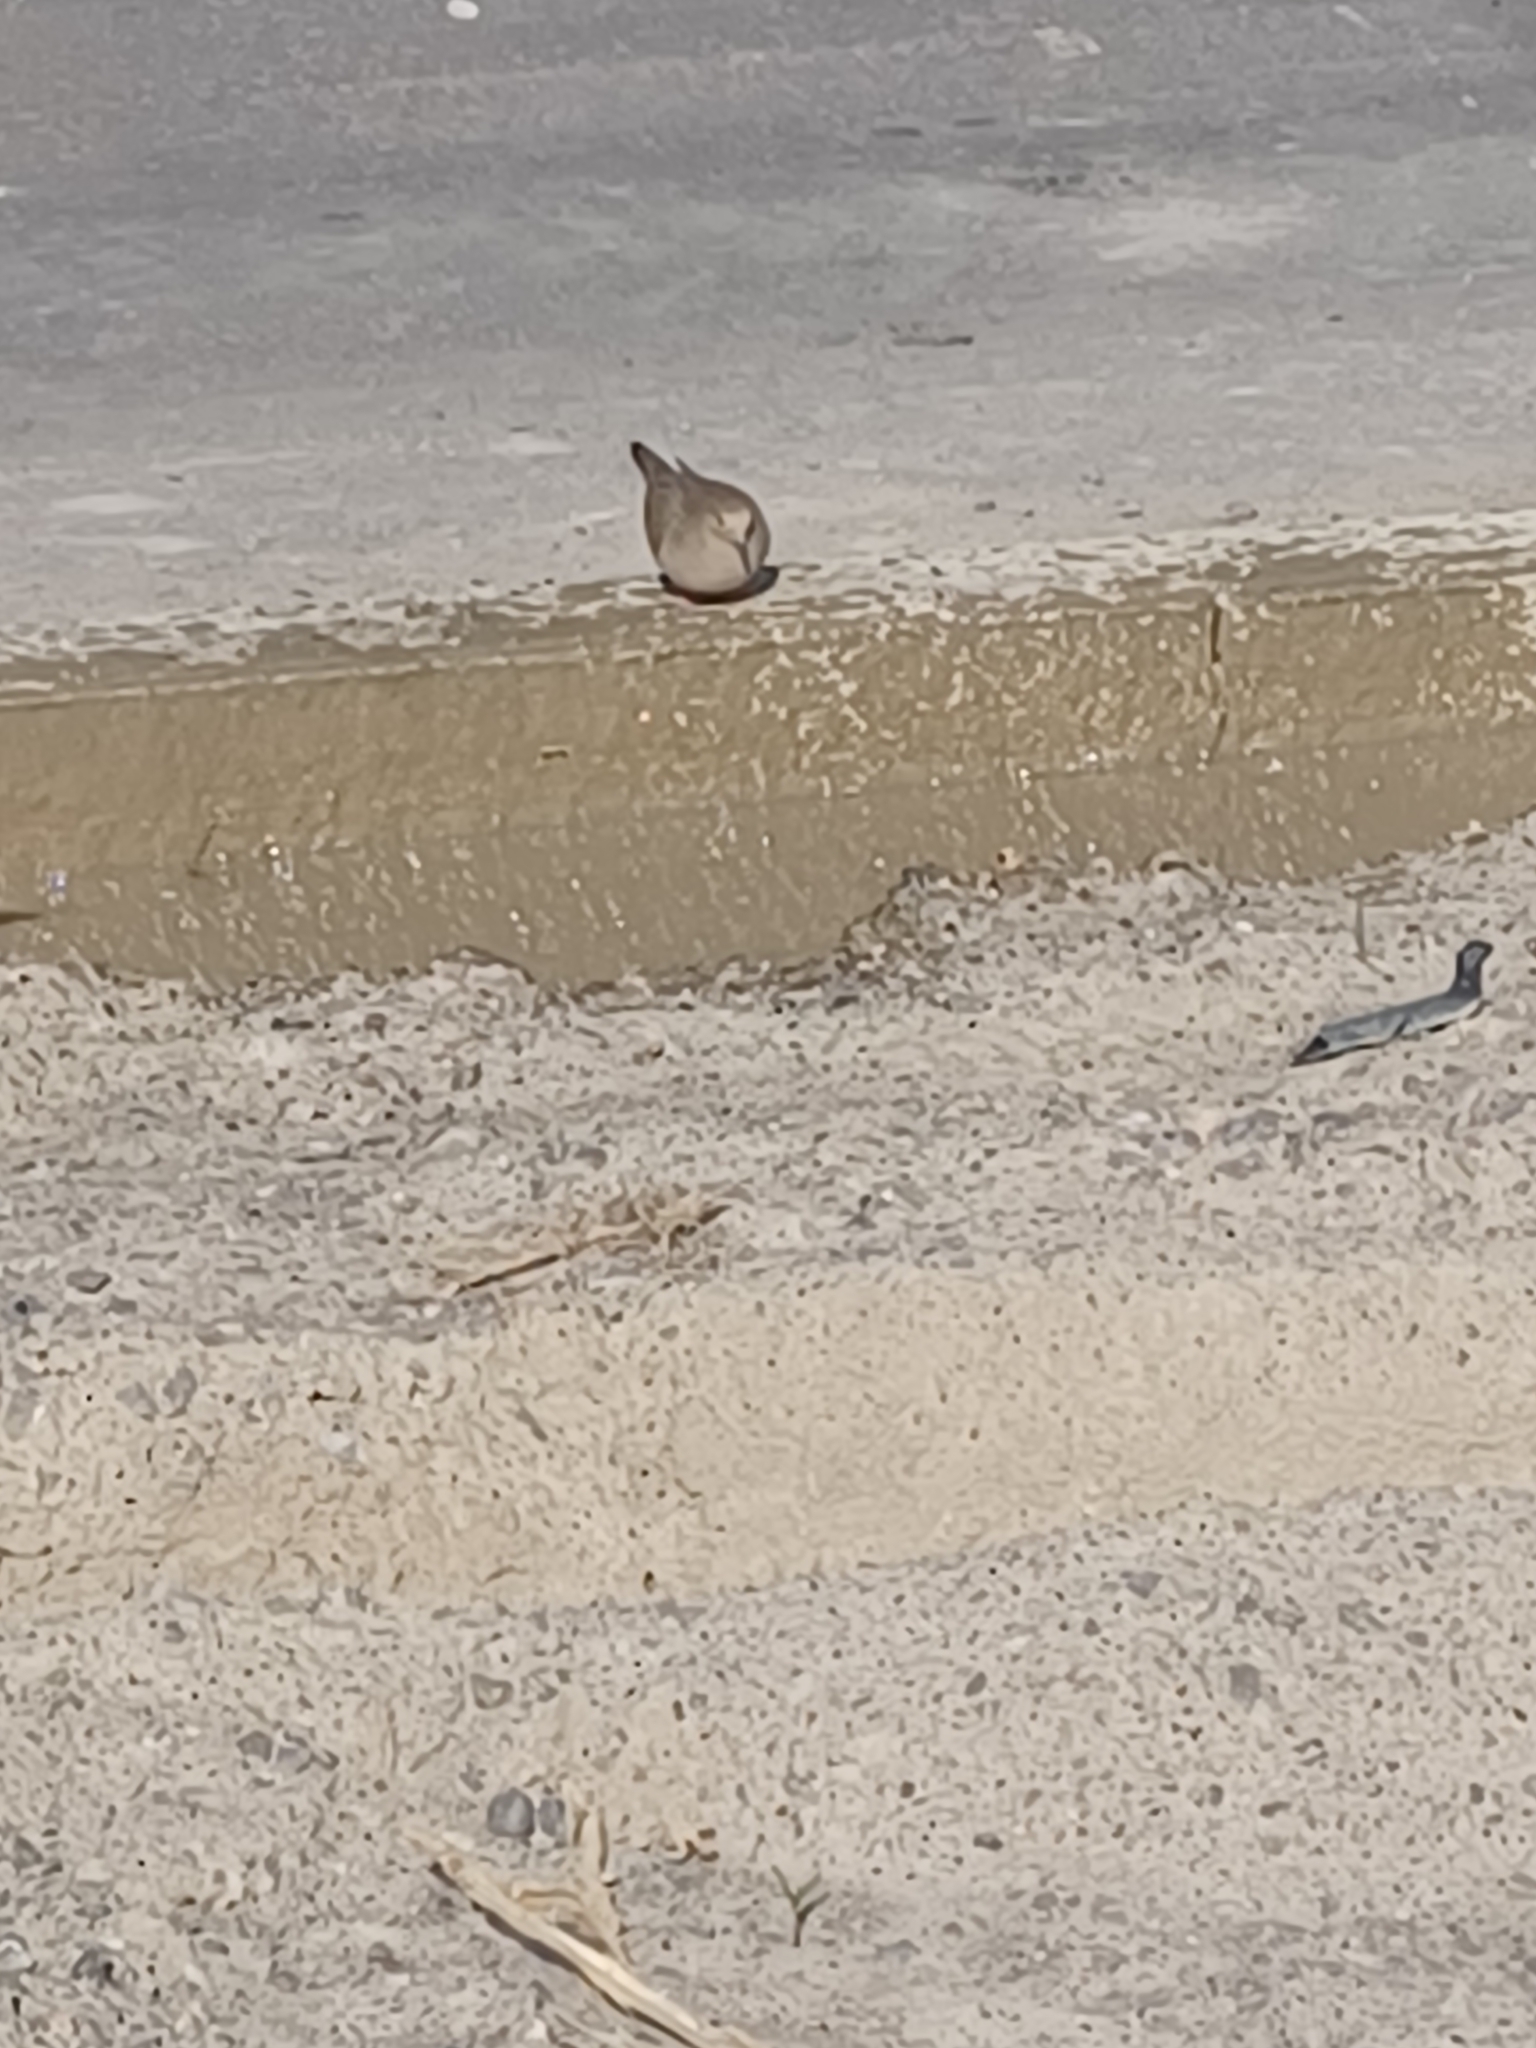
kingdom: Animalia
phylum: Chordata
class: Aves
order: Columbiformes
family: Columbidae
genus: Zenaida
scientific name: Zenaida macroura
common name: Mourning dove
